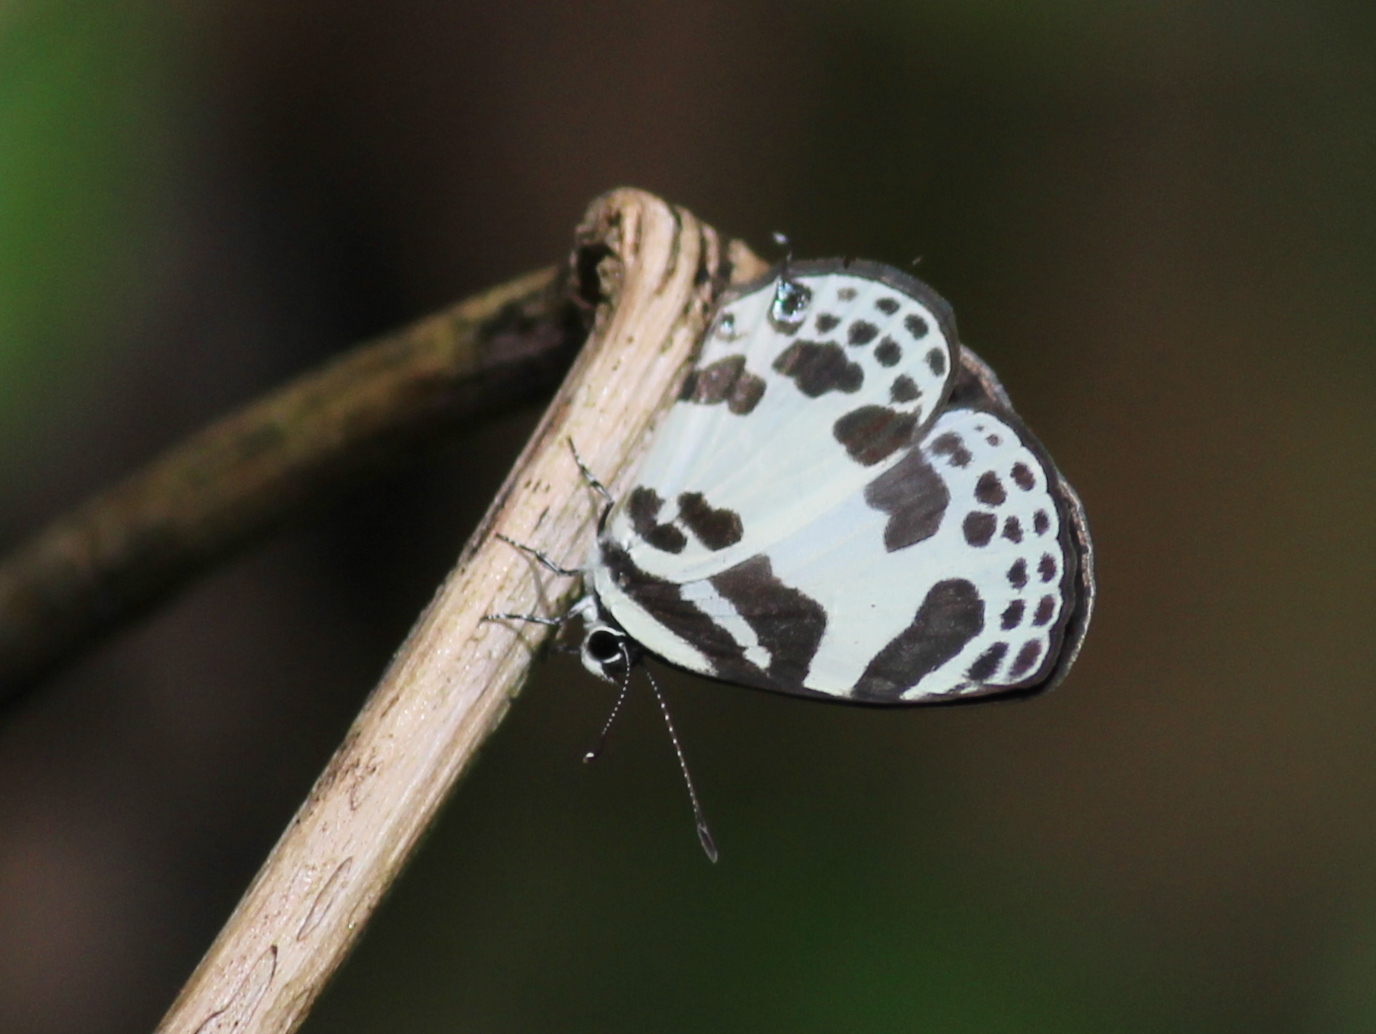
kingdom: Animalia
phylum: Arthropoda
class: Insecta
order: Lepidoptera
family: Lycaenidae
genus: Discolampa
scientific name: Discolampa ethion
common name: Banded blue pierrot
